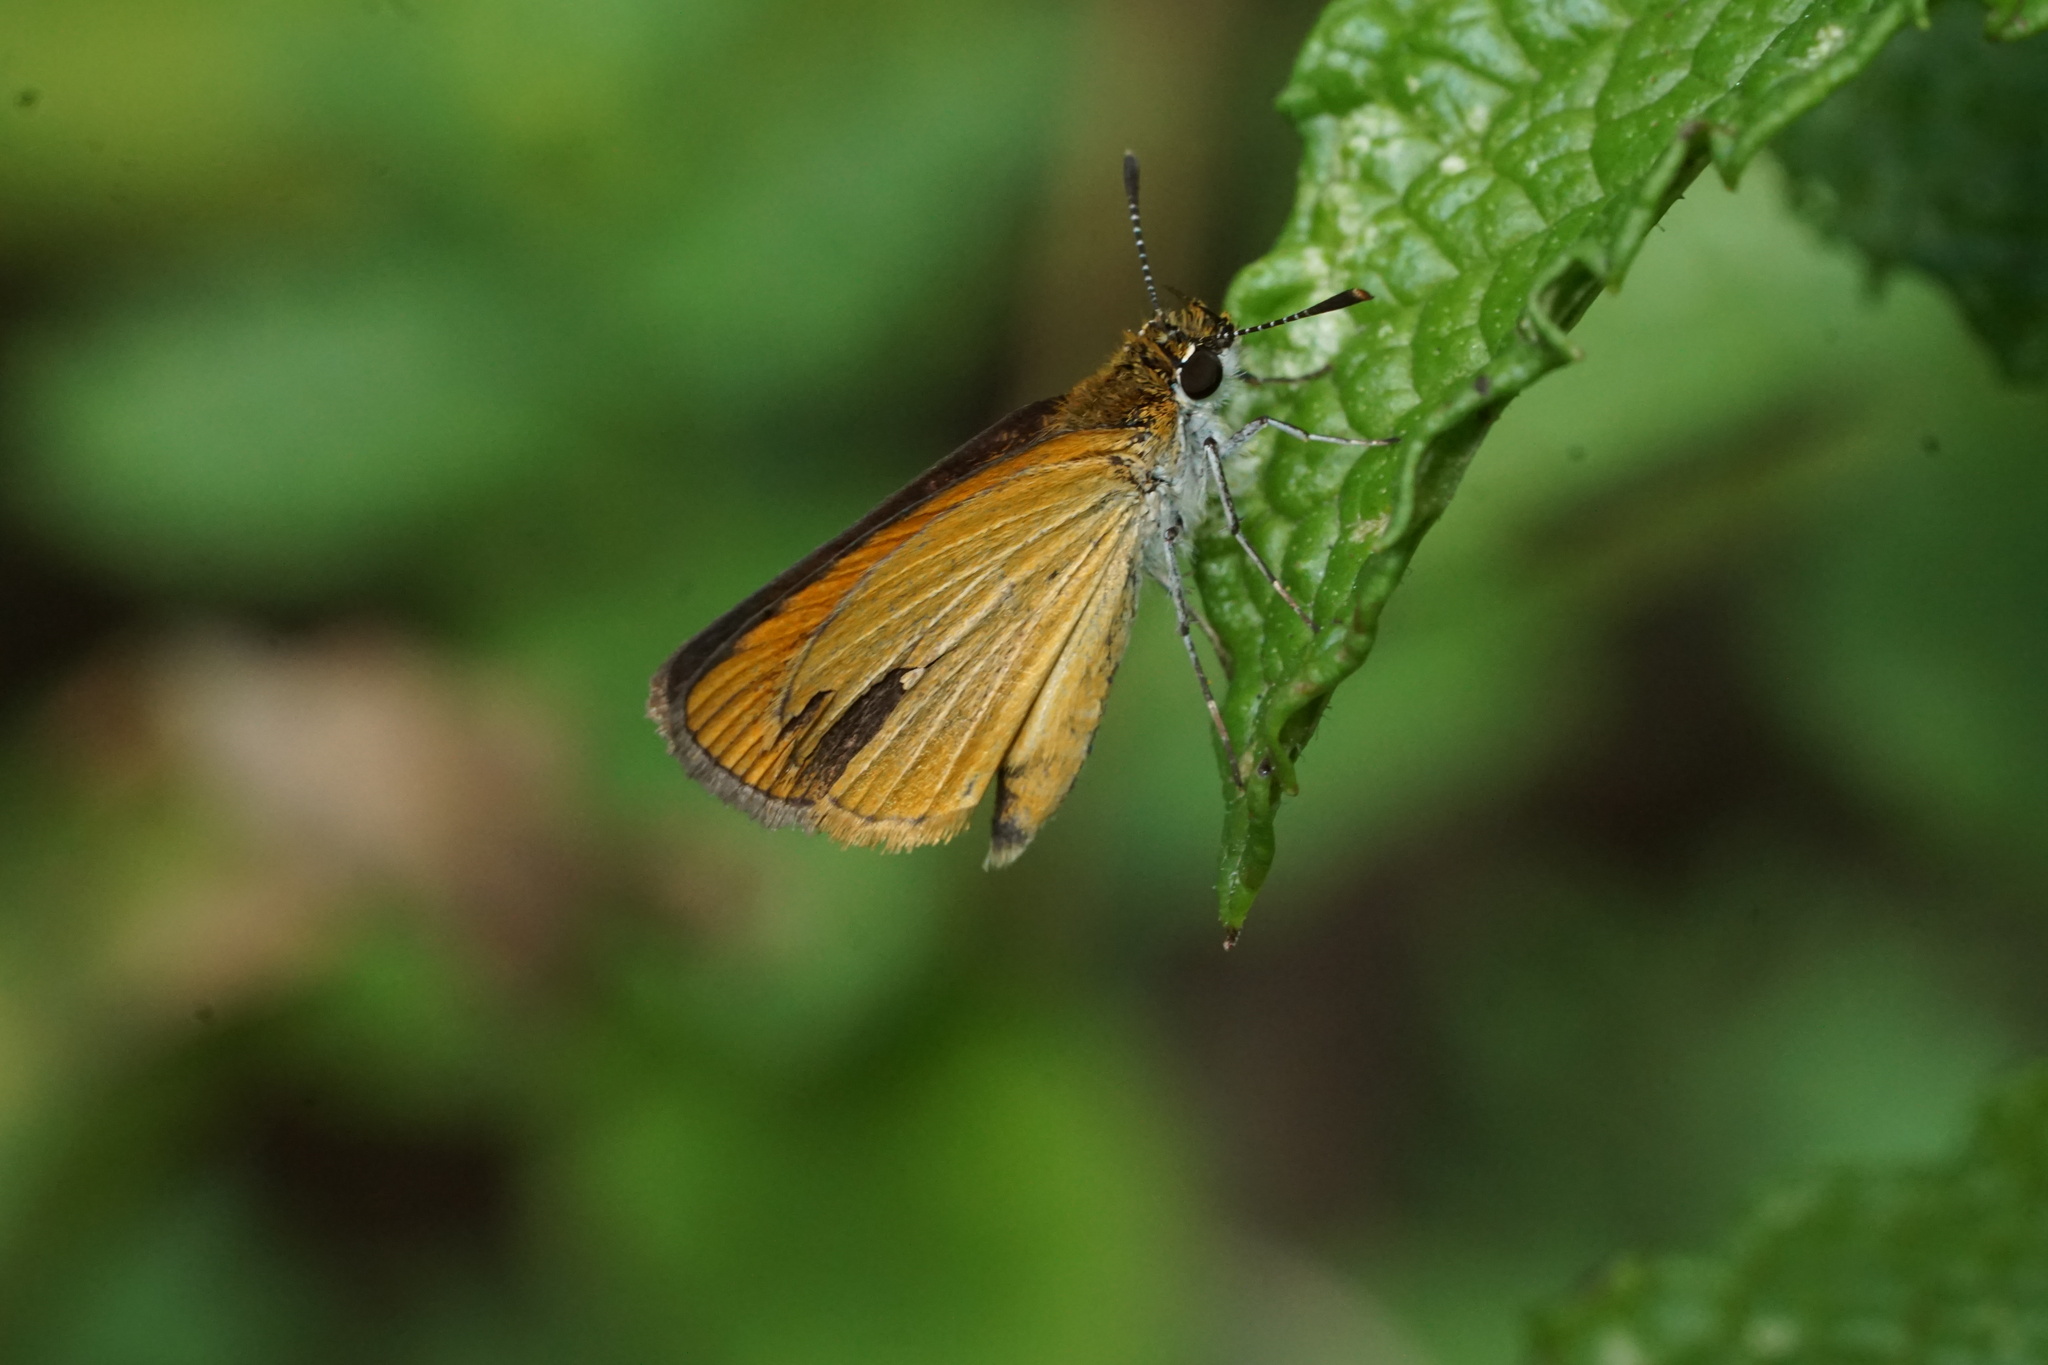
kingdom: Animalia
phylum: Arthropoda
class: Insecta
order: Lepidoptera
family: Hesperiidae
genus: Ancyloxypha
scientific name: Ancyloxypha numitor
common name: Least skipper
